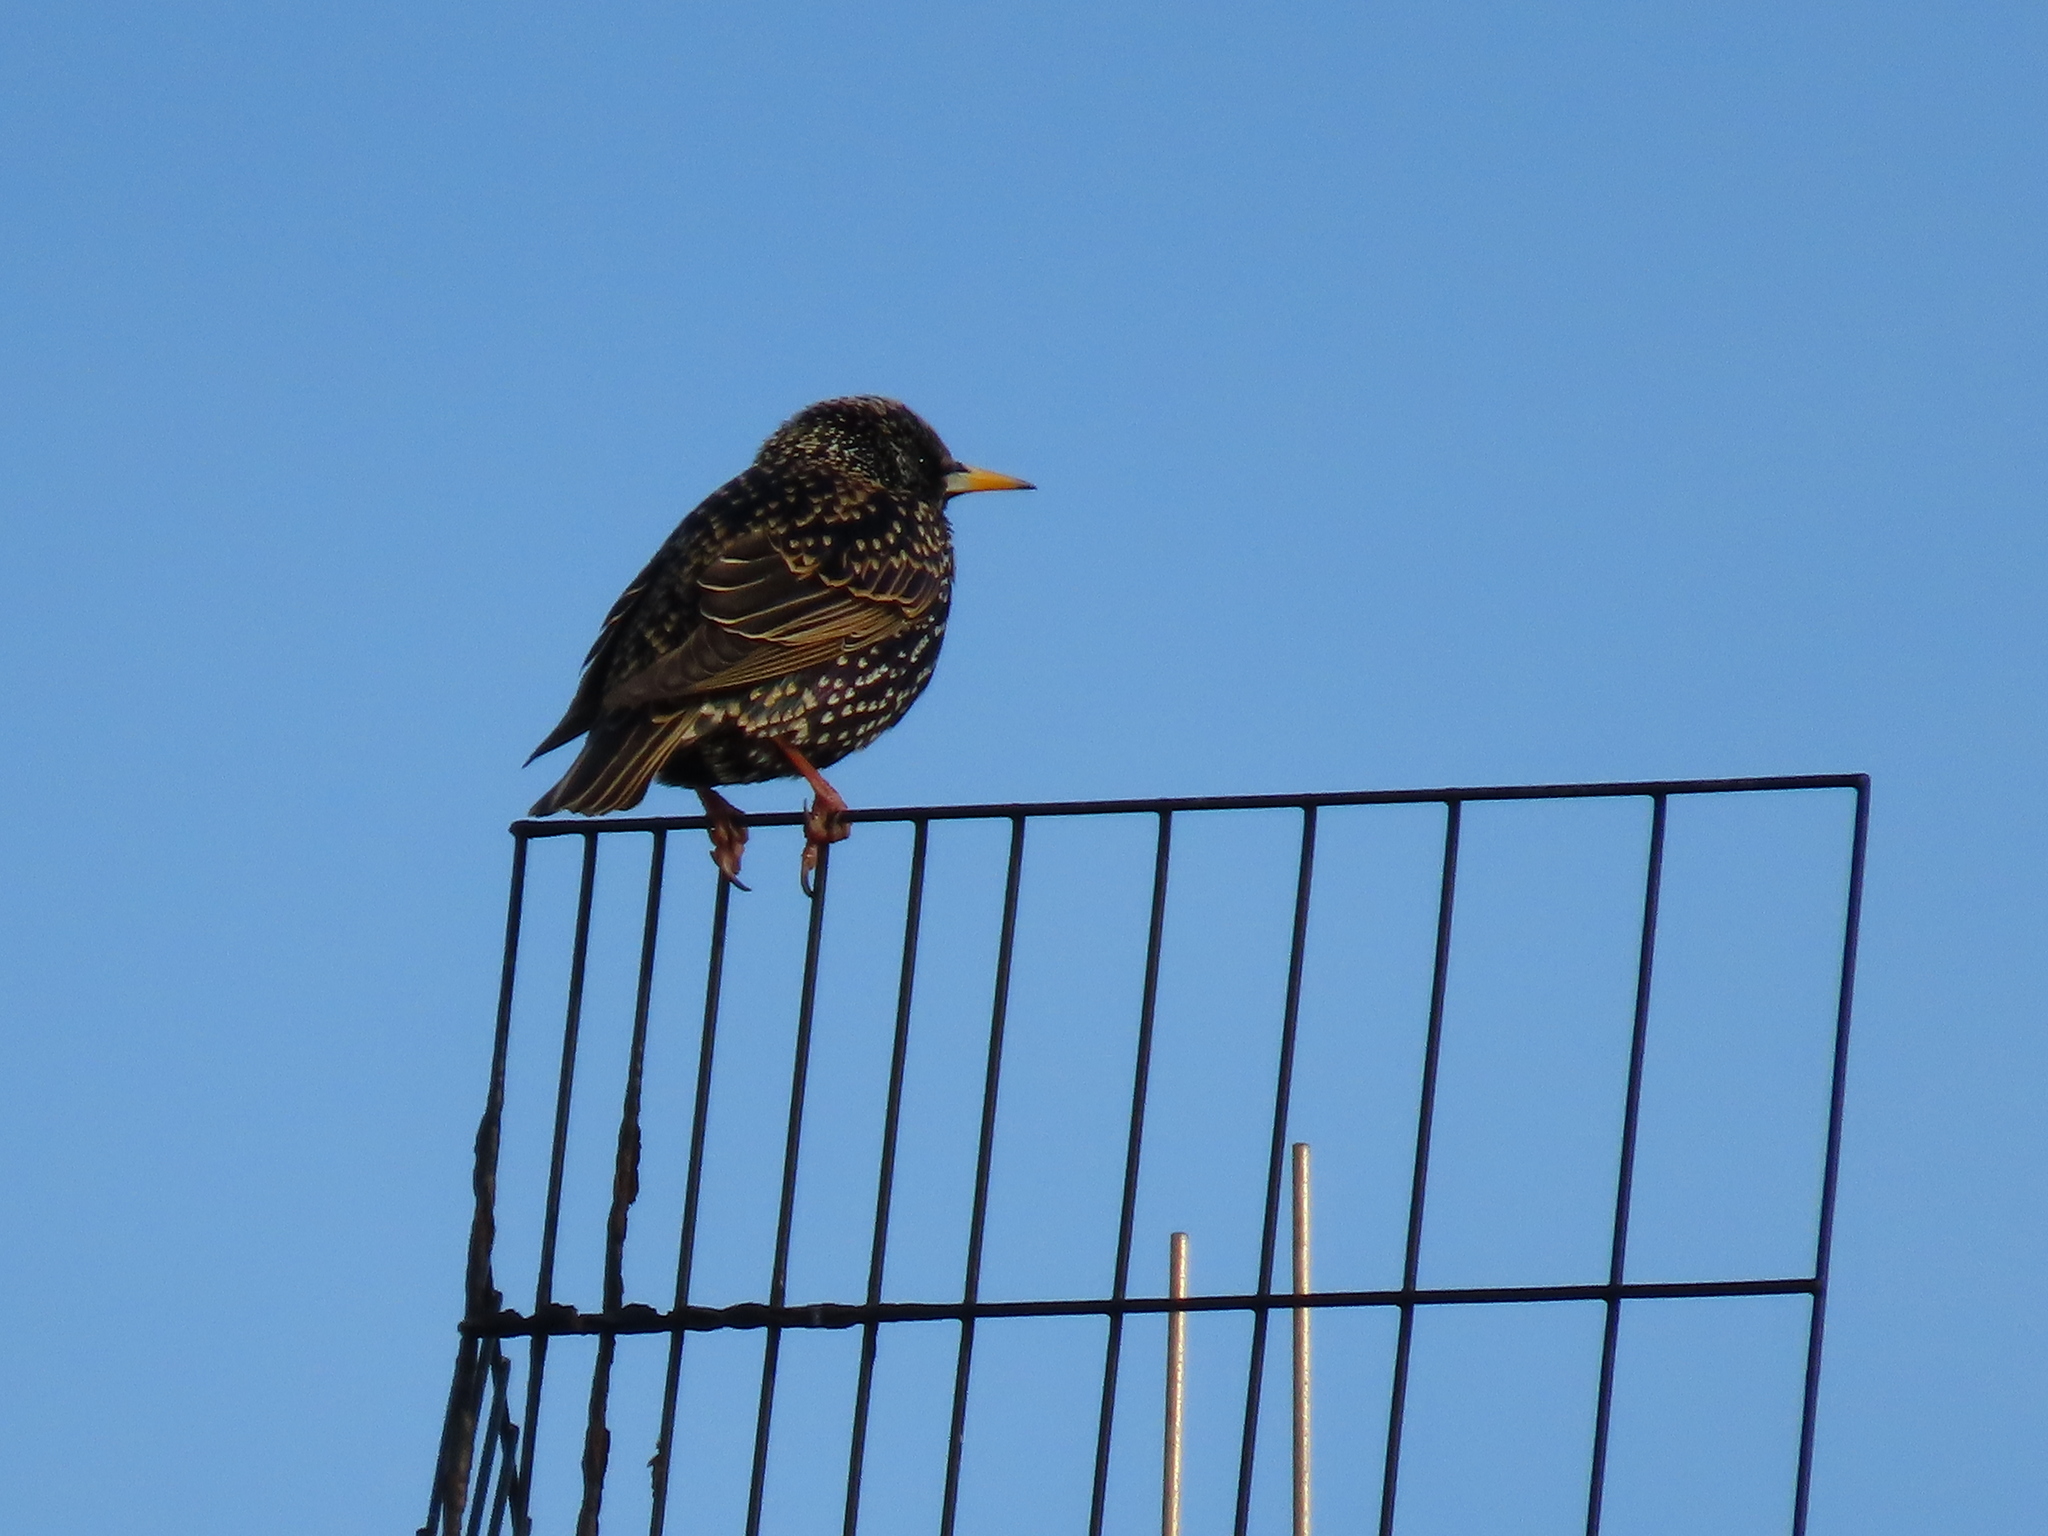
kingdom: Animalia
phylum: Chordata
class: Aves
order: Passeriformes
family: Sturnidae
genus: Sturnus
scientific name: Sturnus vulgaris
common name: Common starling
